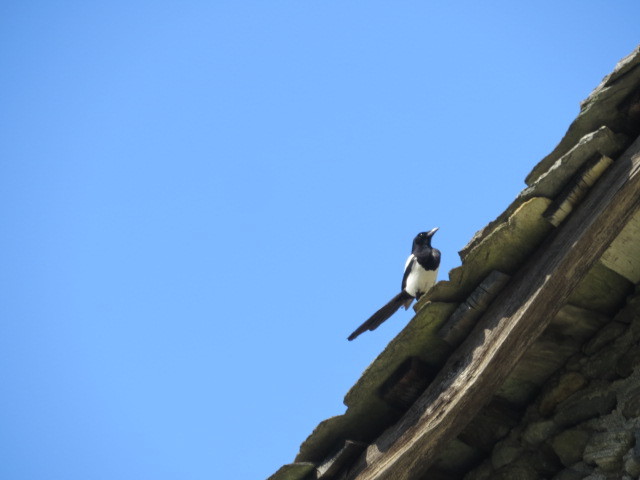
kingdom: Animalia
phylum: Chordata
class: Aves
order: Passeriformes
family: Corvidae
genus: Pica
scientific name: Pica pica
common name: Eurasian magpie
